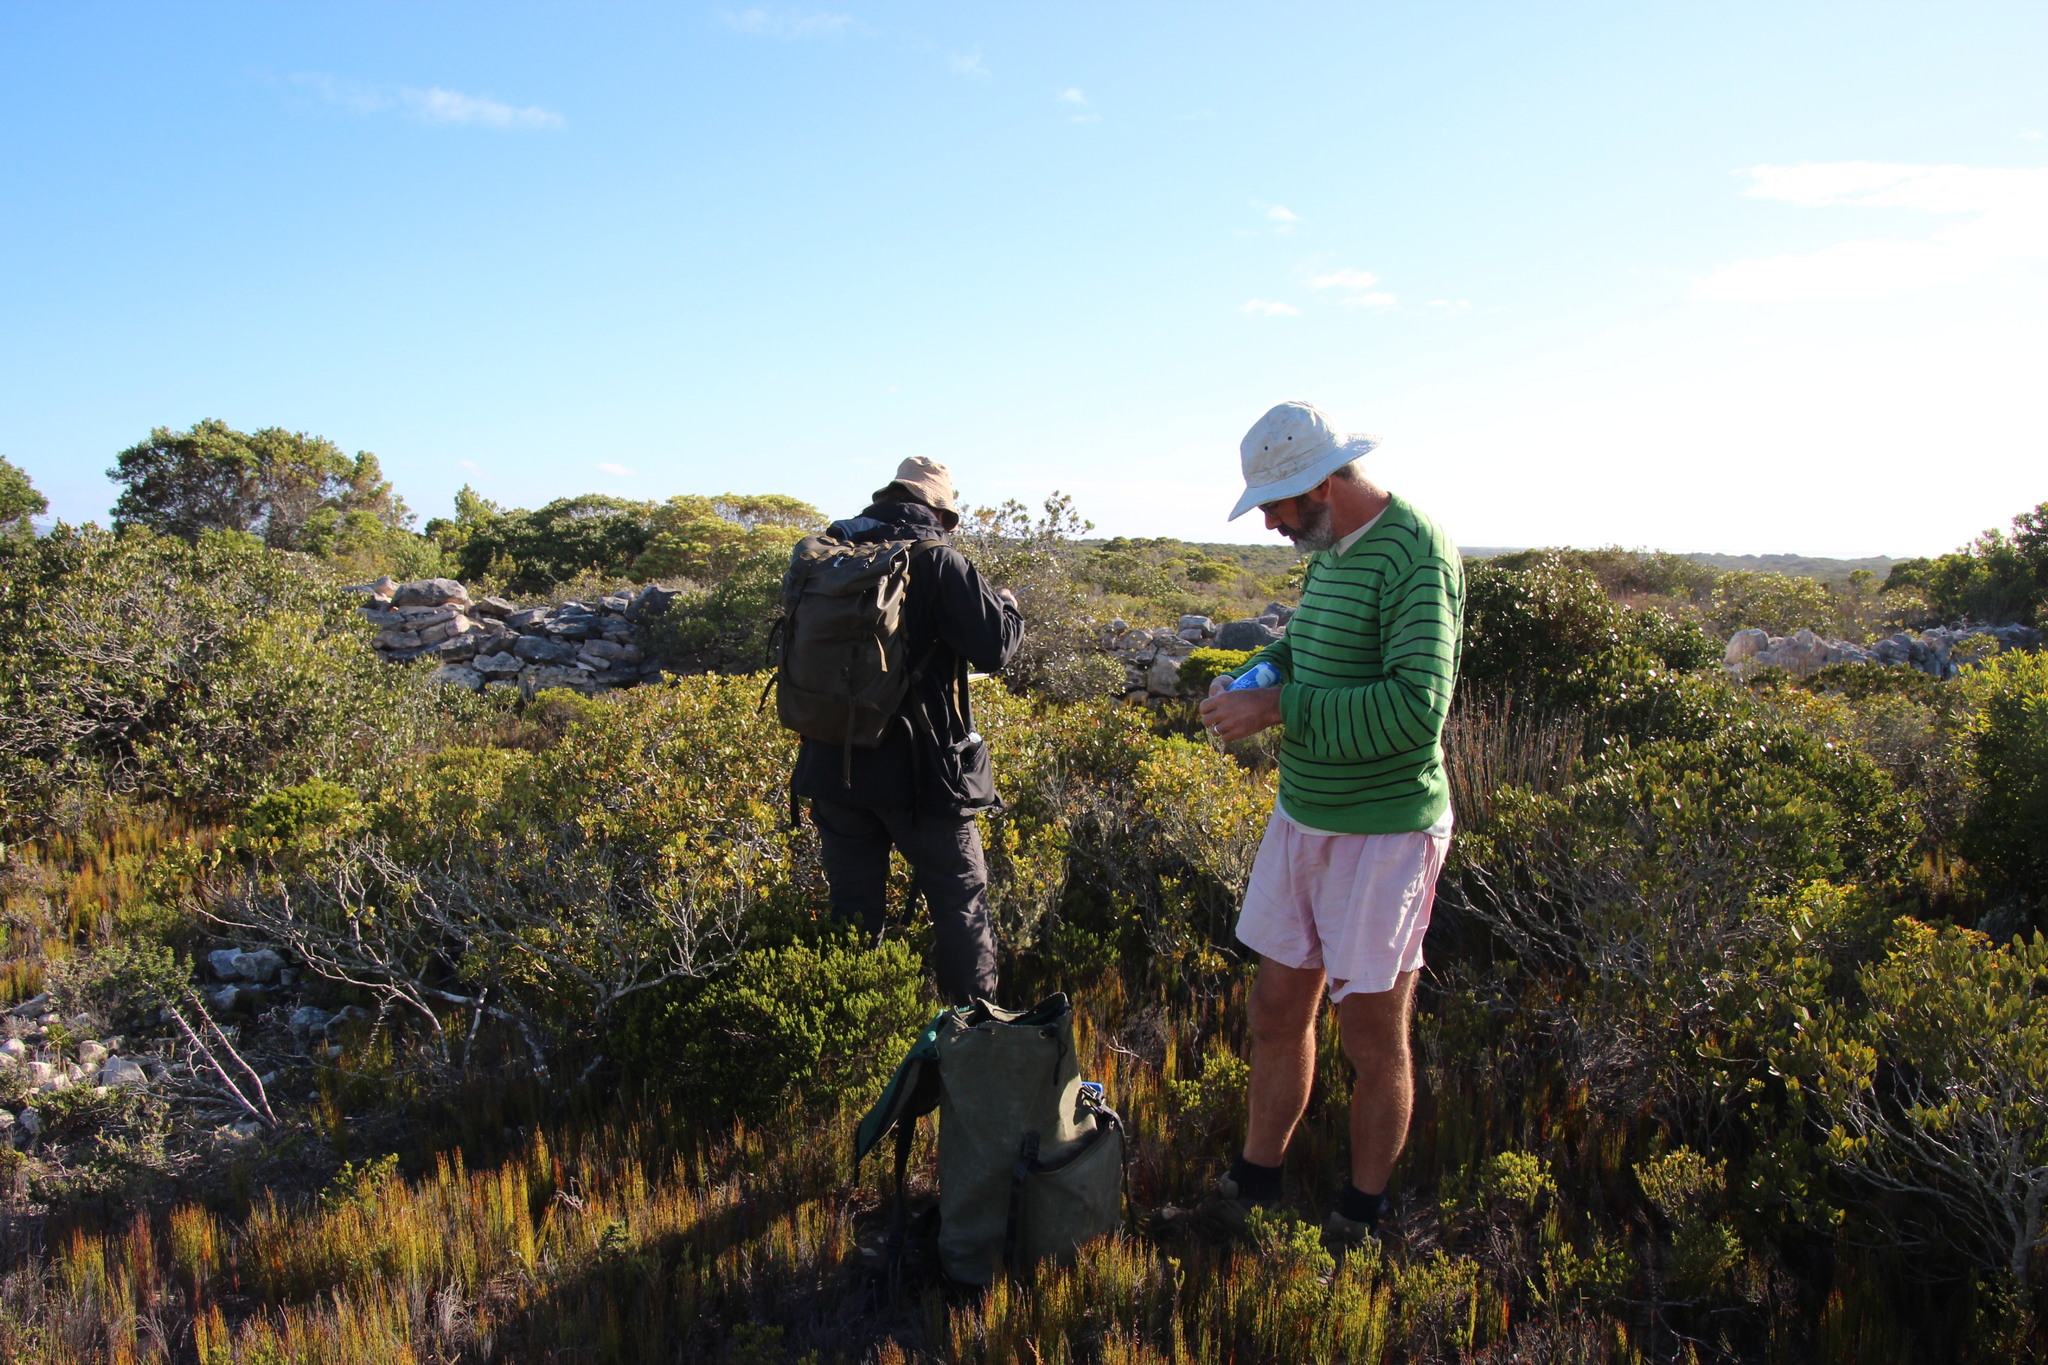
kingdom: Plantae
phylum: Tracheophyta
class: Liliopsida
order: Poales
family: Restionaceae
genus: Elegia
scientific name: Elegia microcarpa
